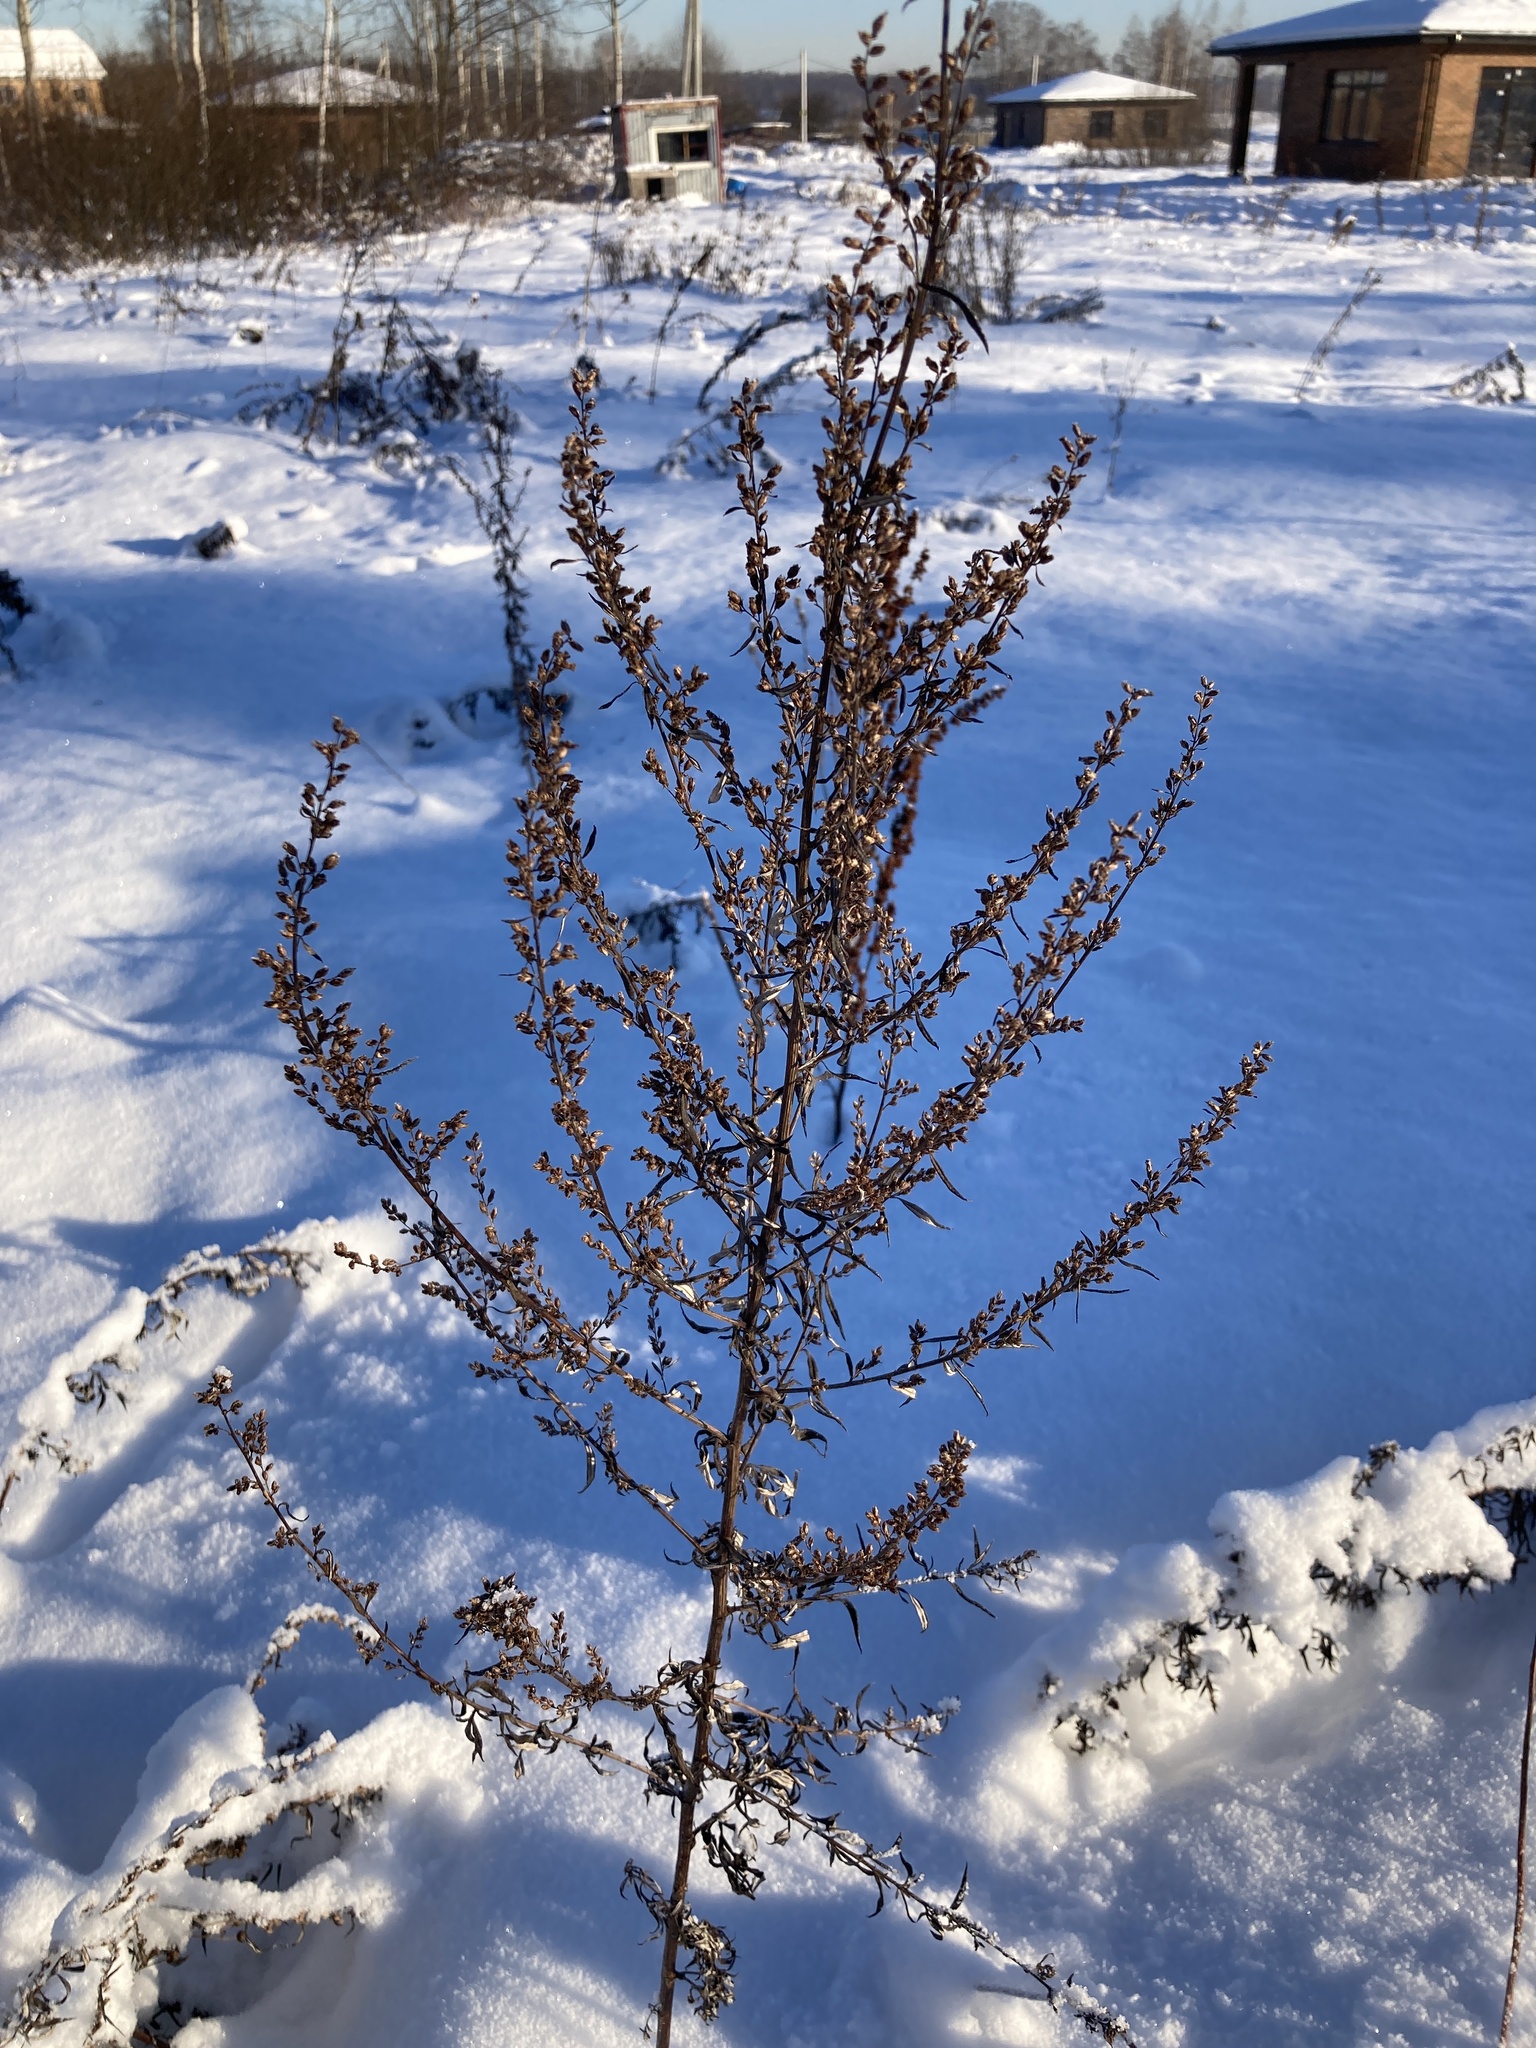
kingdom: Plantae
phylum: Tracheophyta
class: Magnoliopsida
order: Asterales
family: Asteraceae
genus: Artemisia
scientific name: Artemisia vulgaris
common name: Mugwort
